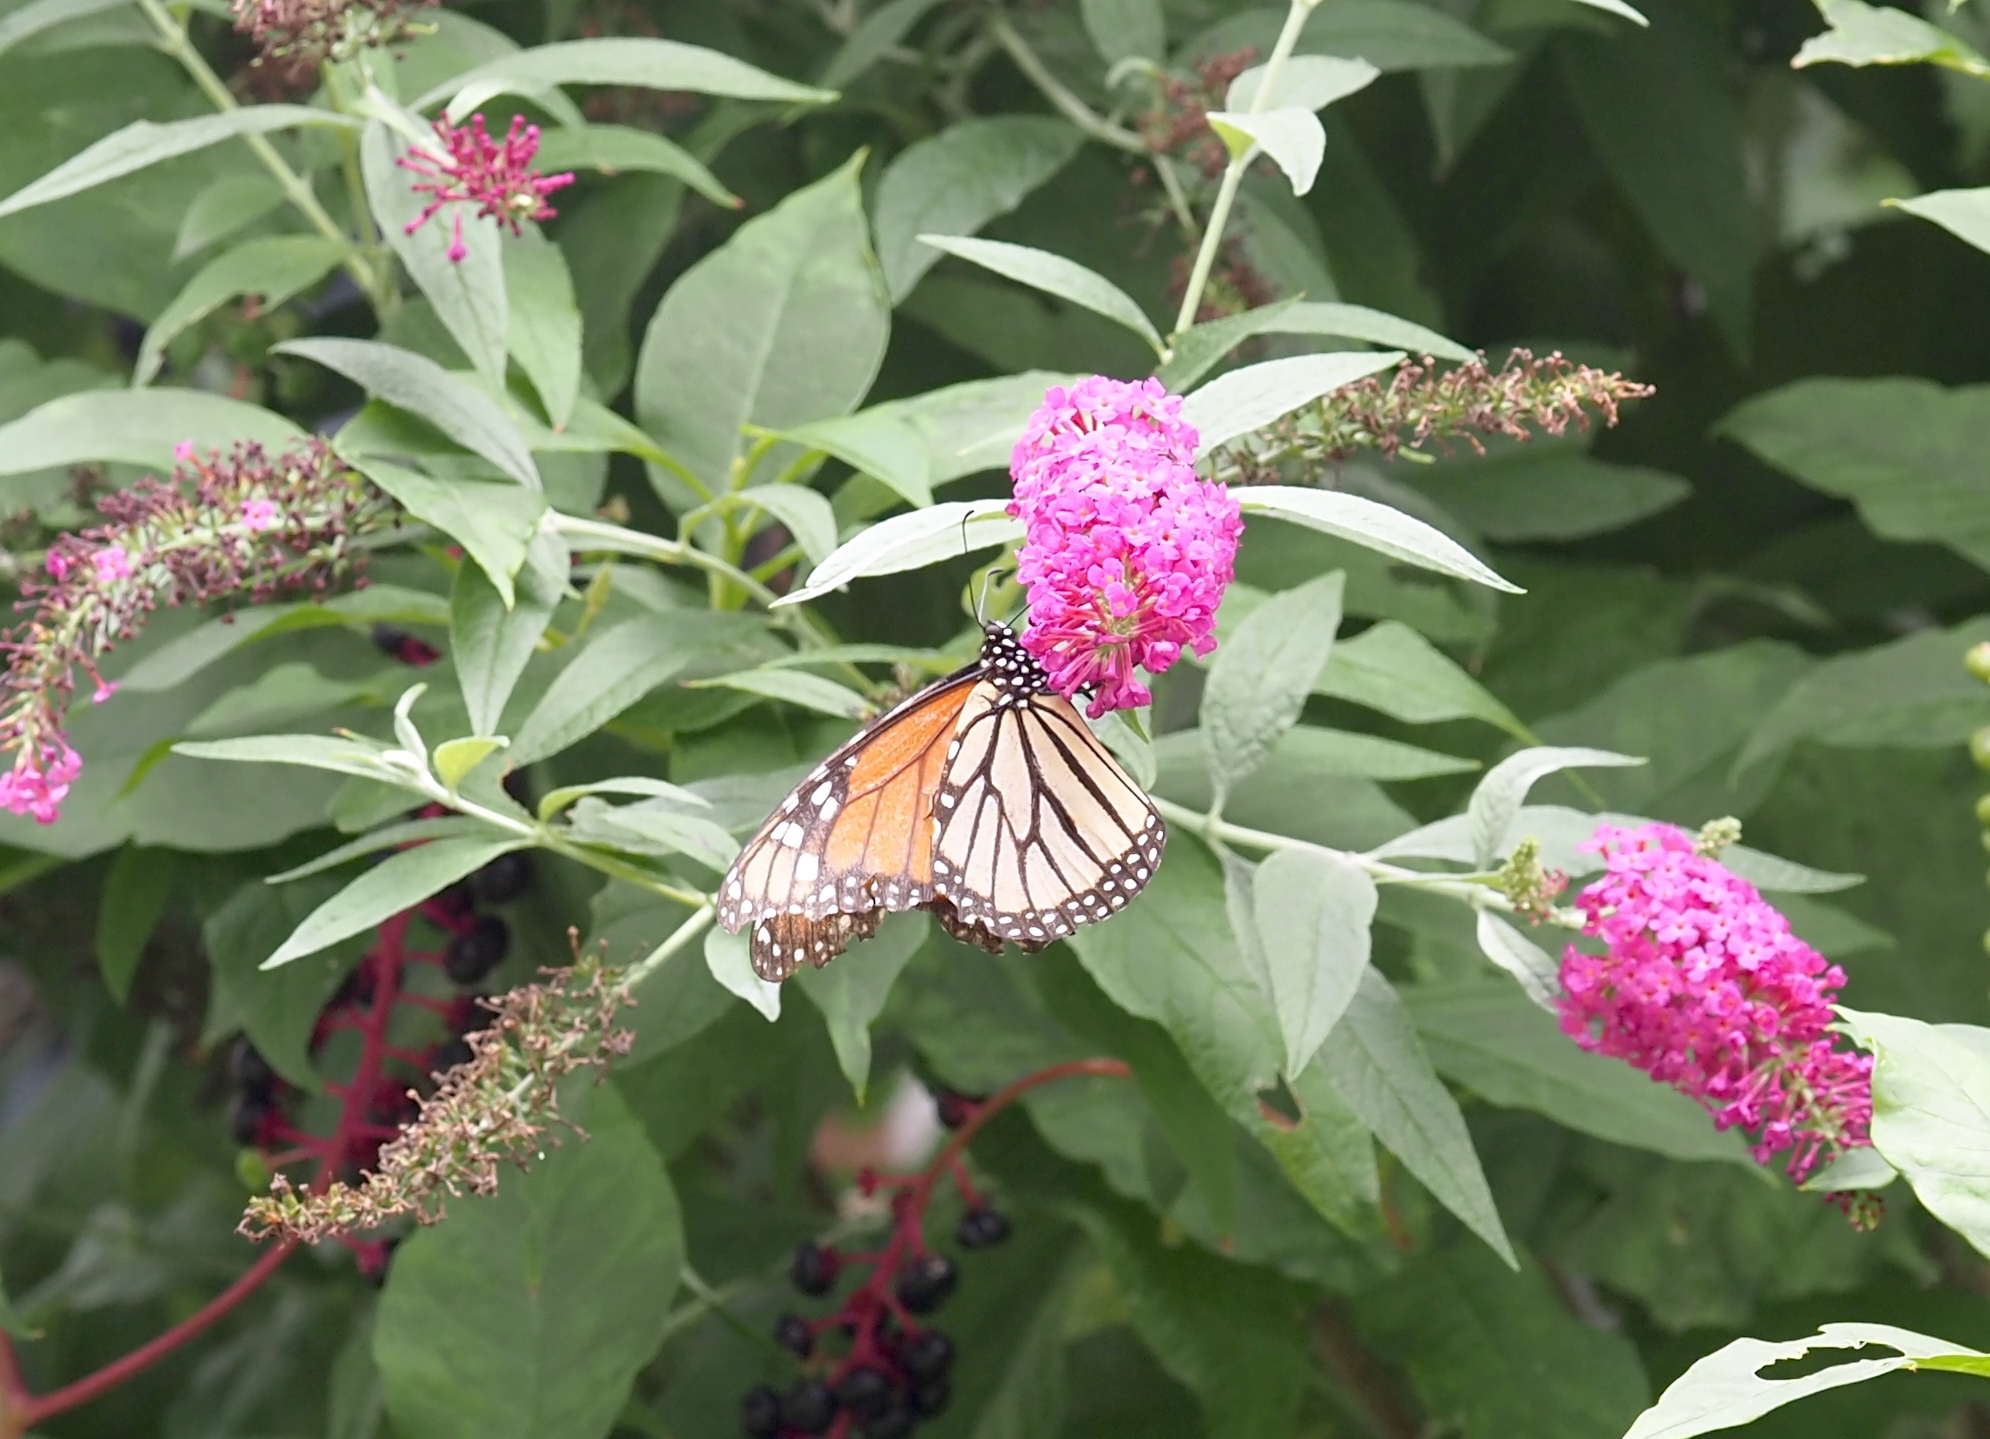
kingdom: Animalia
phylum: Arthropoda
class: Insecta
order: Lepidoptera
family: Nymphalidae
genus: Danaus
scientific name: Danaus plexippus
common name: Monarch
